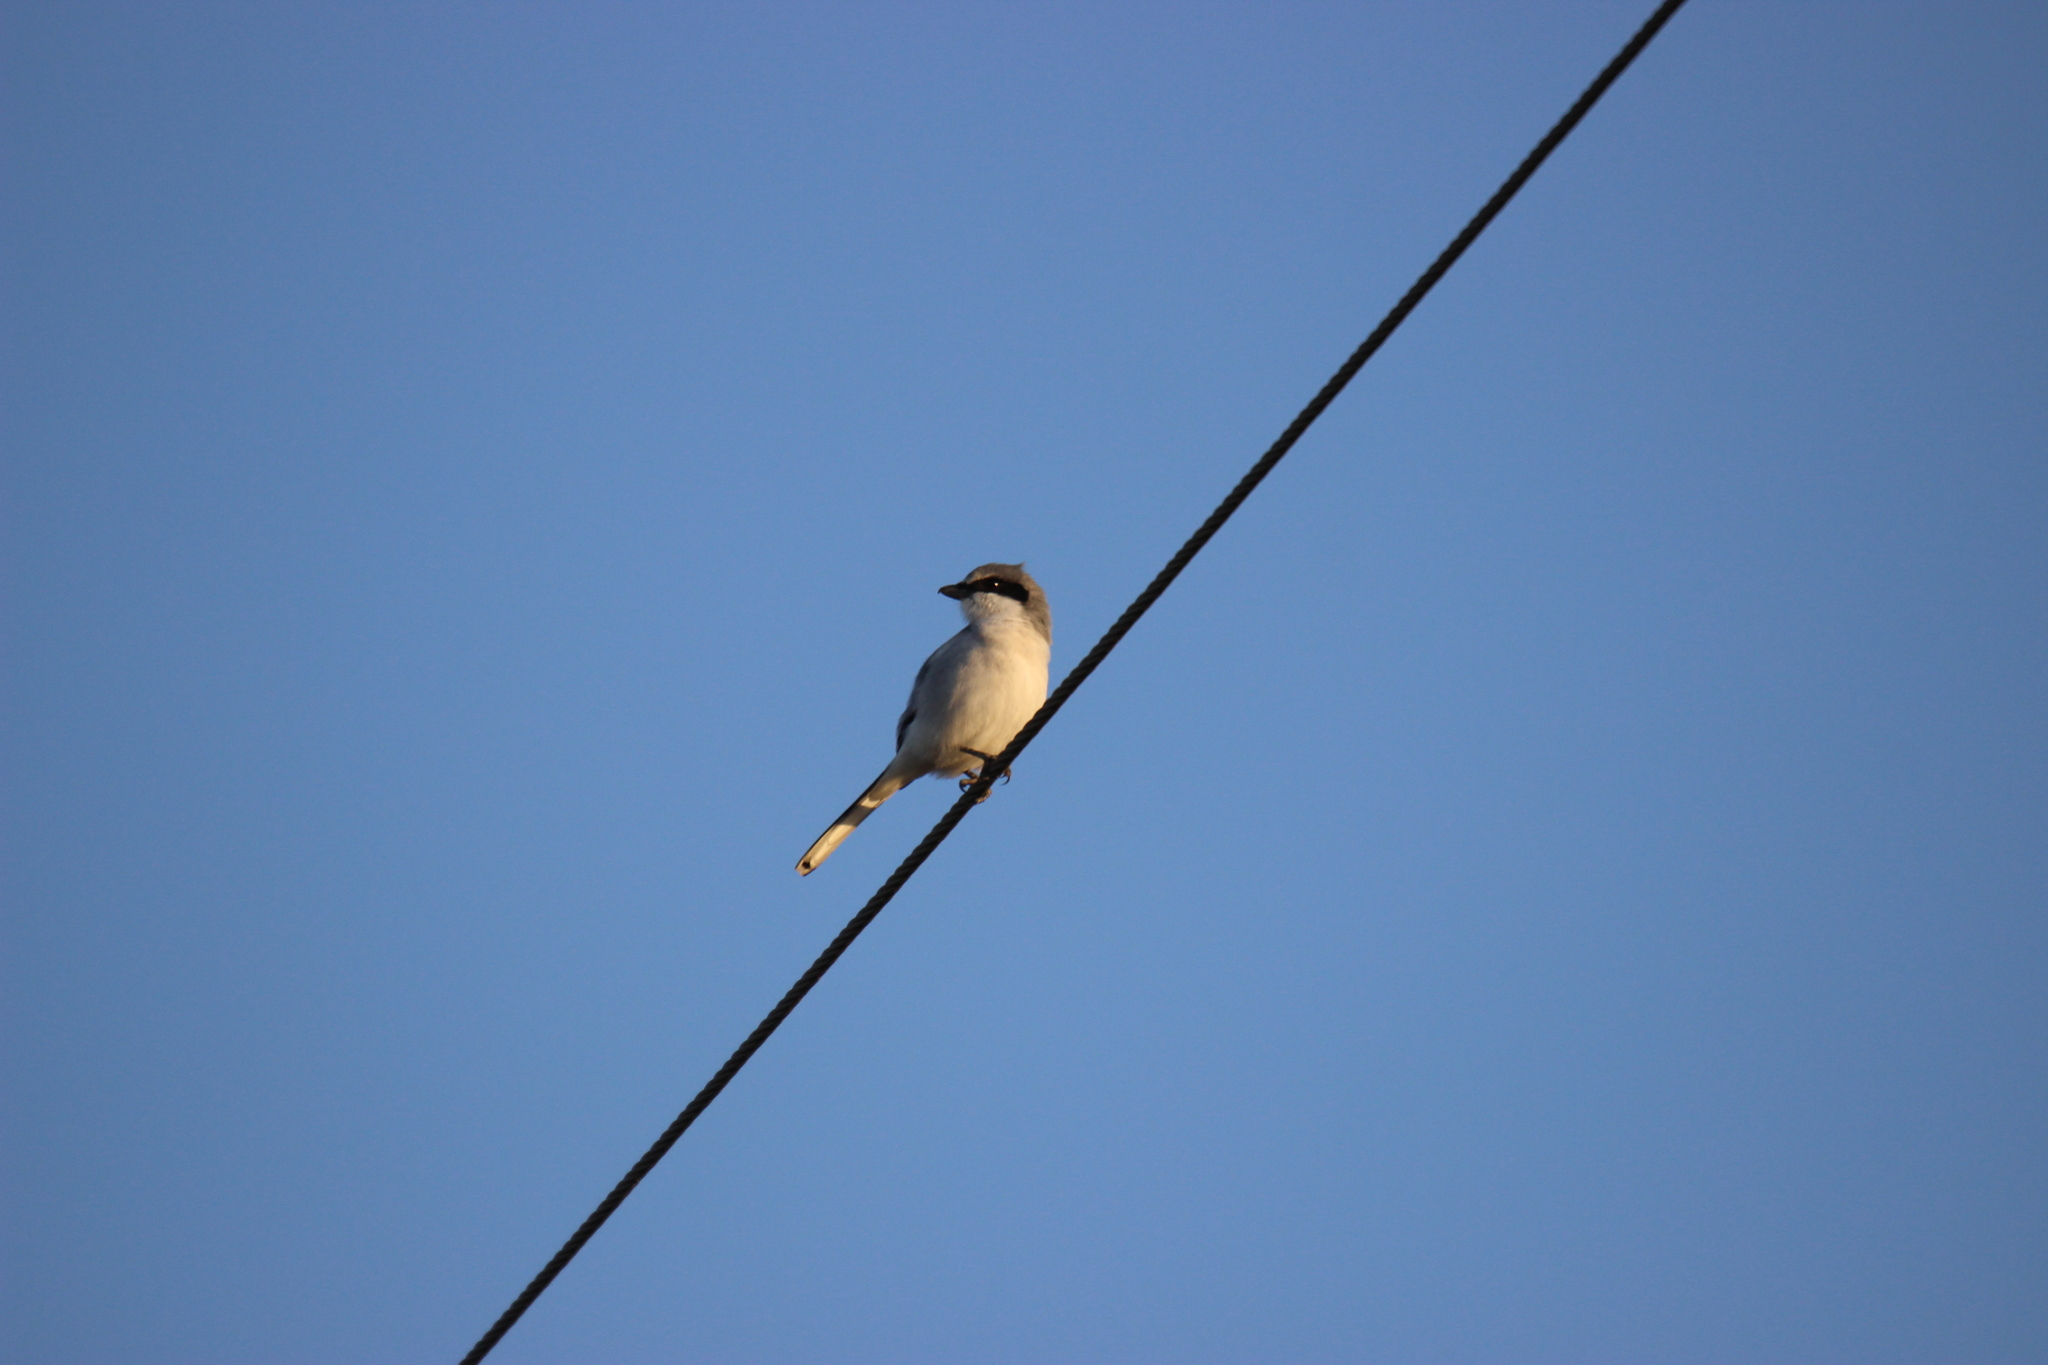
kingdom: Animalia
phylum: Chordata
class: Aves
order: Passeriformes
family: Laniidae
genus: Lanius
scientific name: Lanius ludovicianus
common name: Loggerhead shrike
